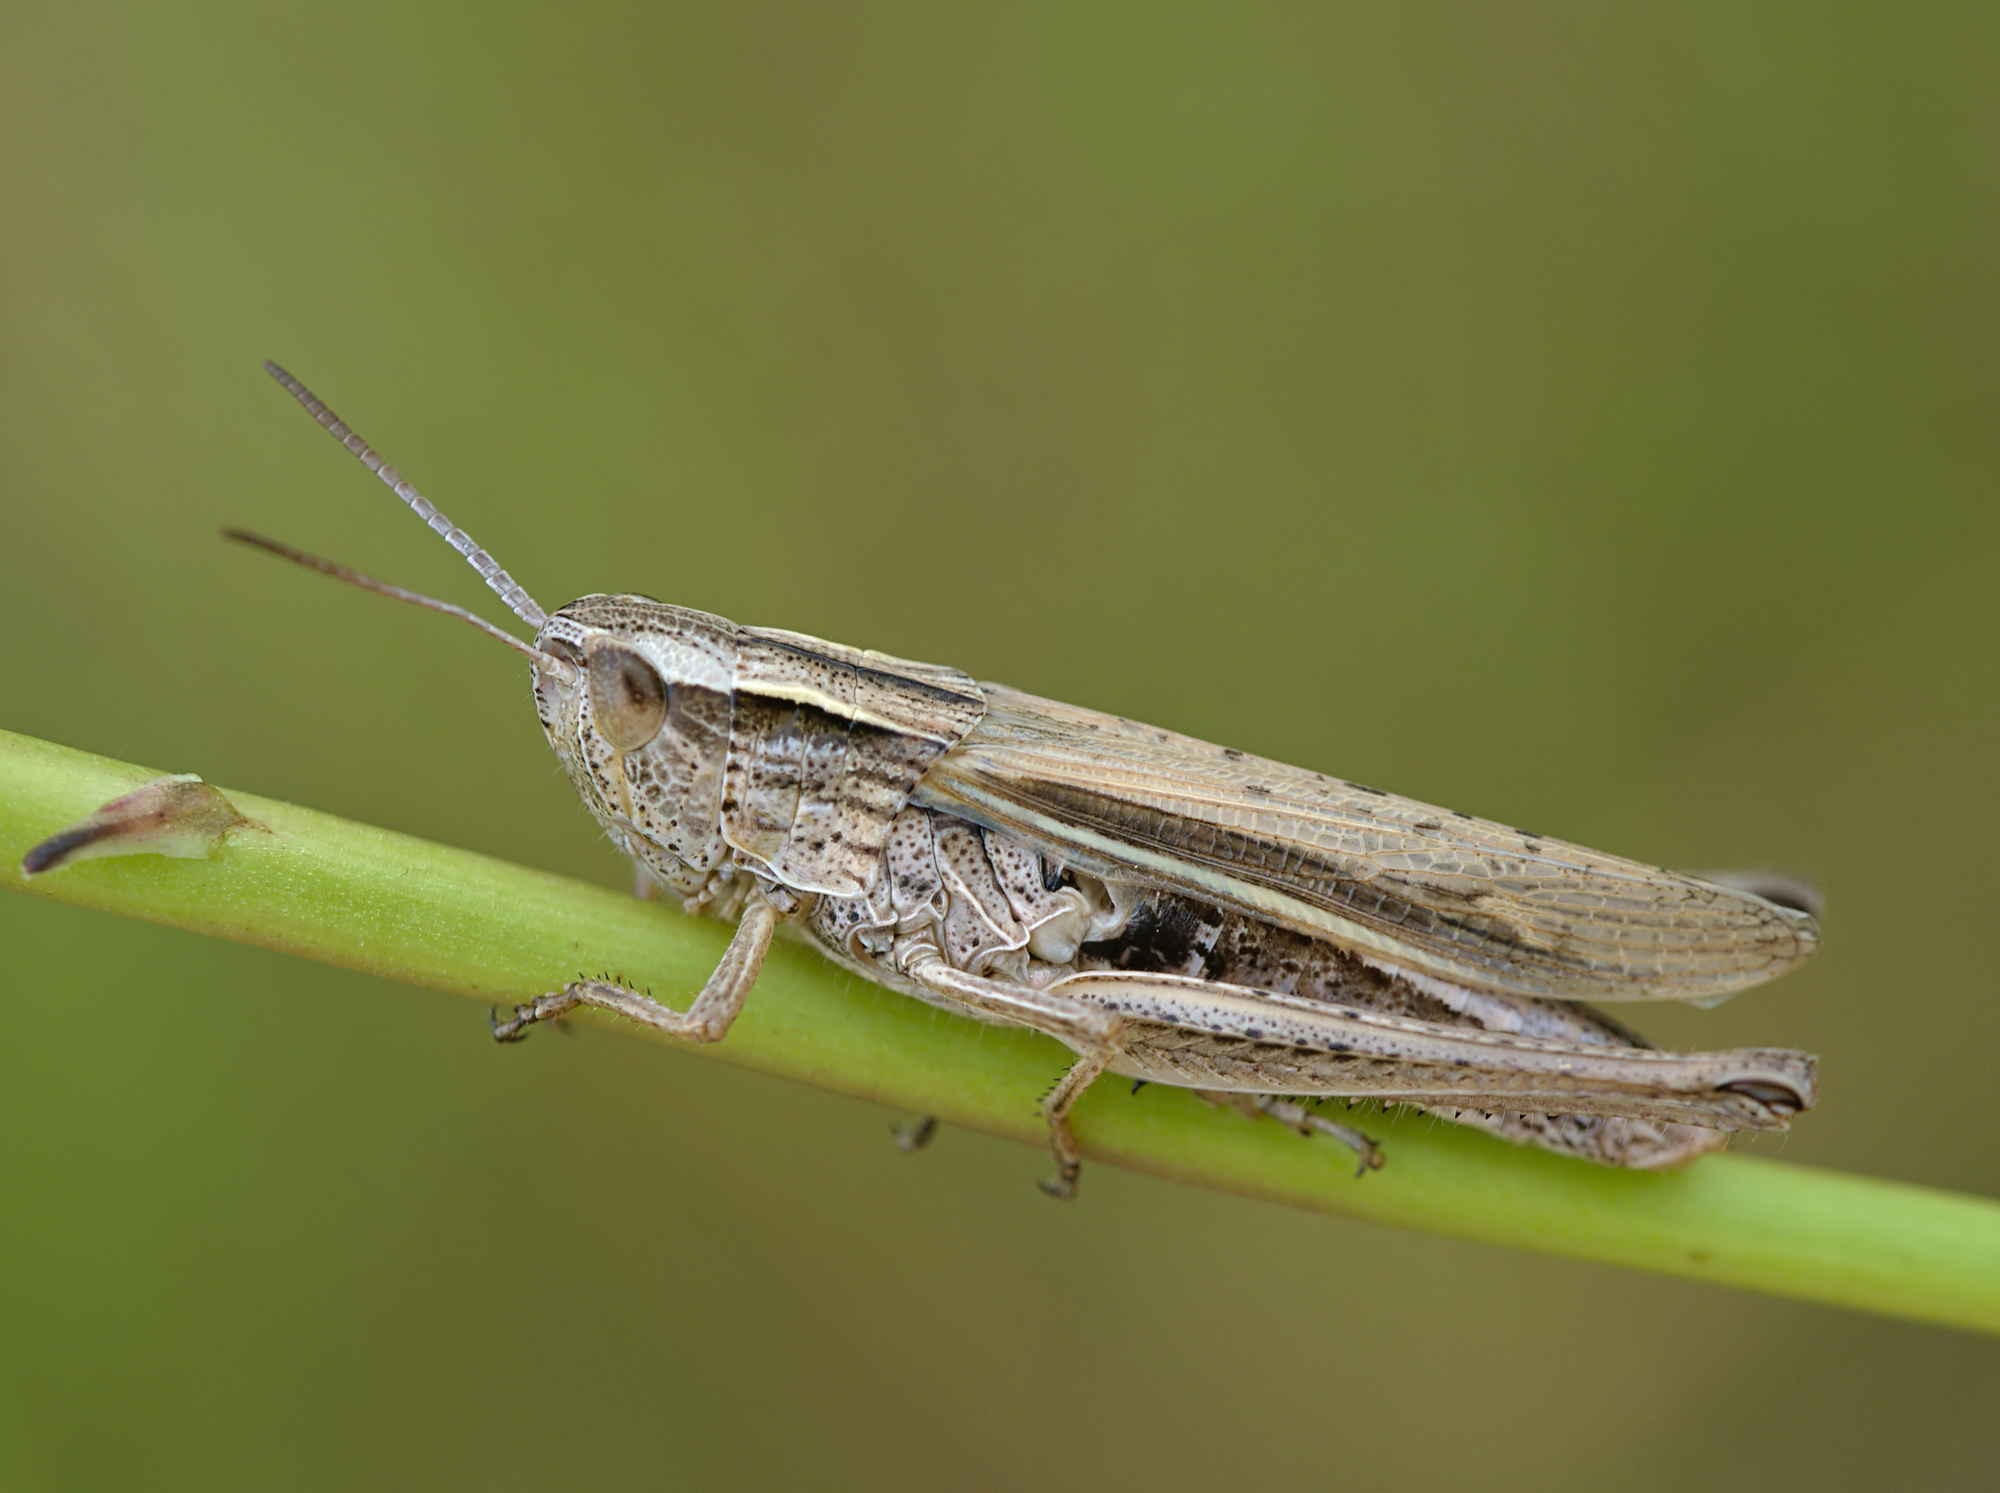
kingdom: Animalia
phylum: Arthropoda
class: Insecta
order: Orthoptera
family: Acrididae
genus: Chorthippus
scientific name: Chorthippus albomarginatus
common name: Lesser marsh grasshopper
